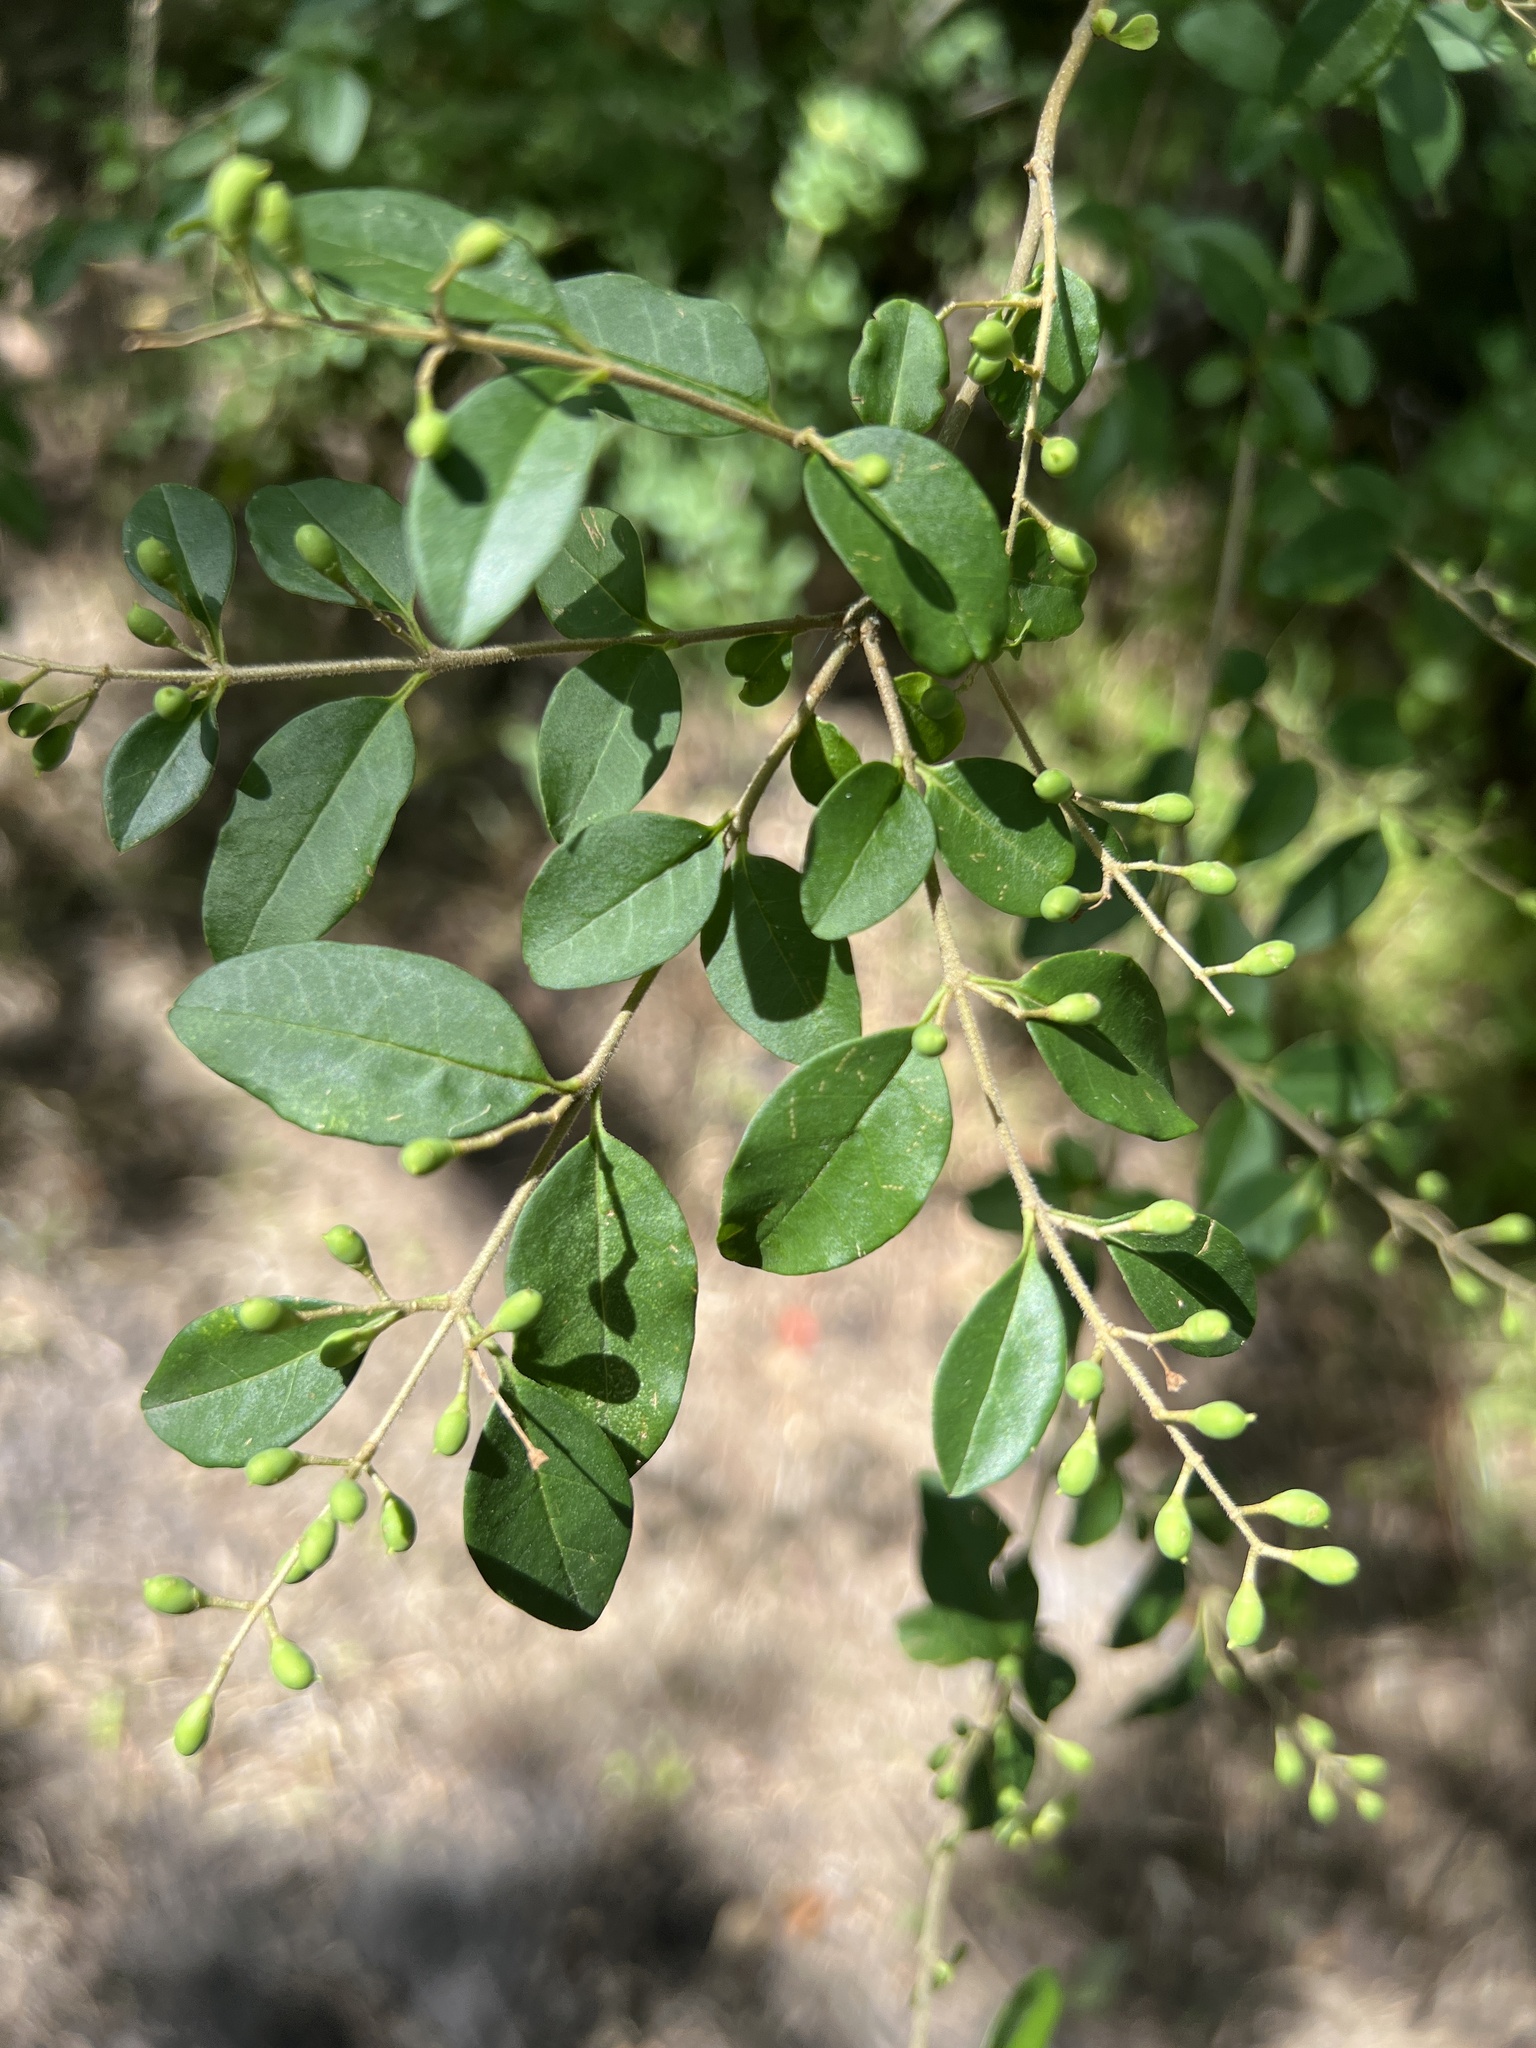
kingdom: Plantae
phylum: Tracheophyta
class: Magnoliopsida
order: Lamiales
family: Oleaceae
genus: Ligustrum
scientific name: Ligustrum sinense
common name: Chinese privet
